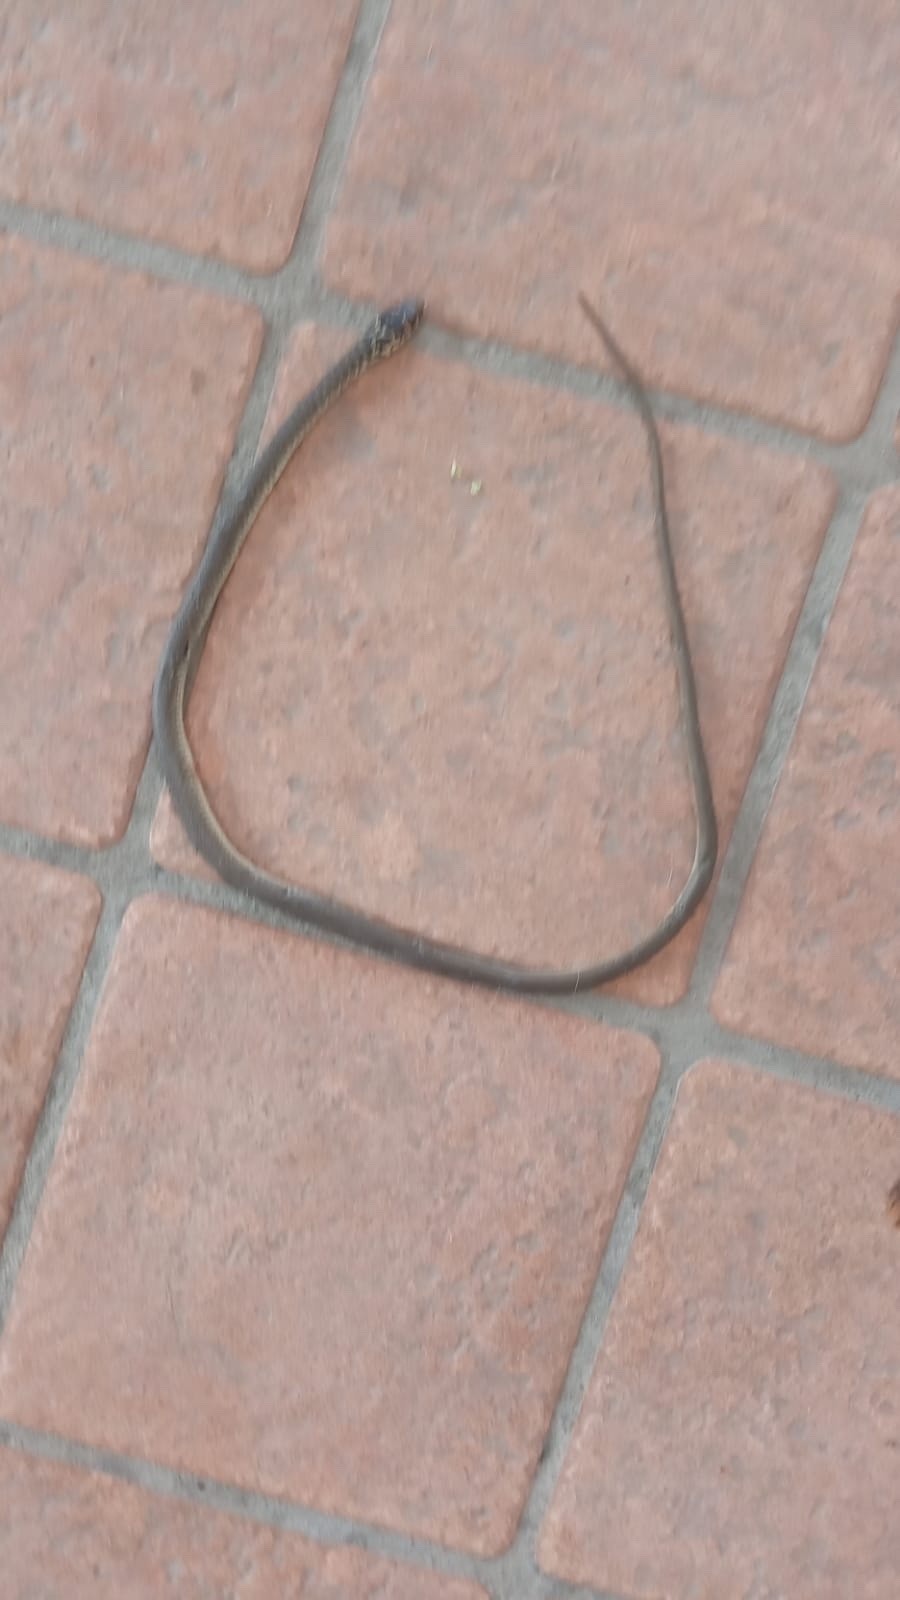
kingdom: Animalia
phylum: Chordata
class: Squamata
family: Colubridae
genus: Hierophis
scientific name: Hierophis viridiflavus
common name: Green whip snake
